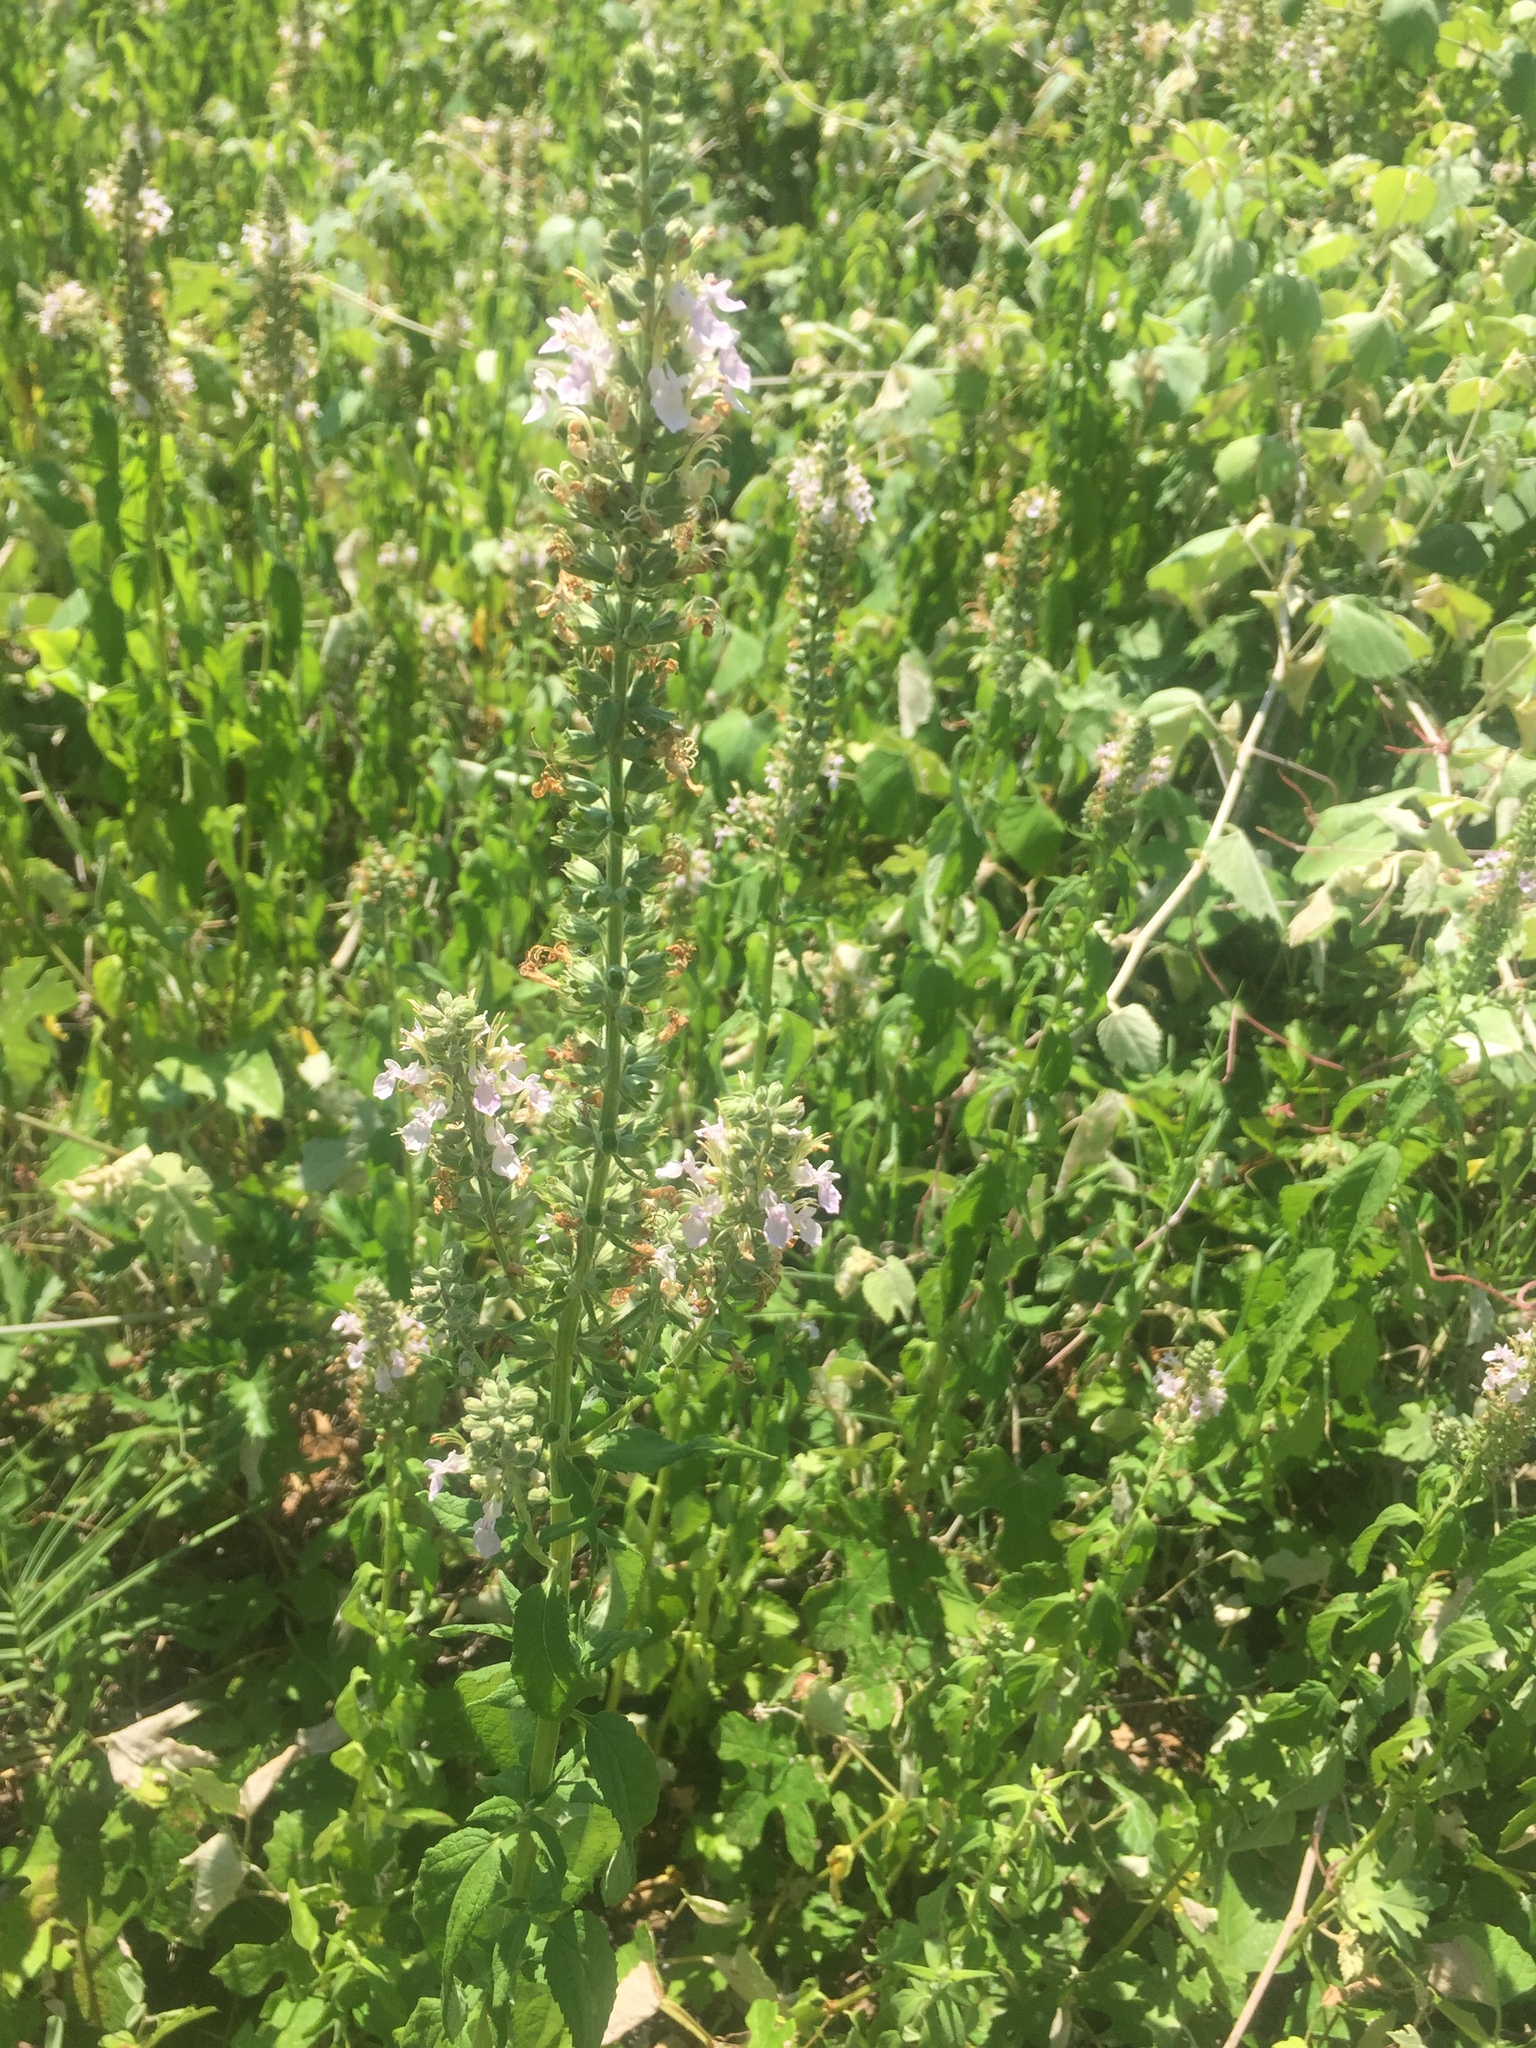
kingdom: Plantae
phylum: Tracheophyta
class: Magnoliopsida
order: Lamiales
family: Lamiaceae
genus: Teucrium
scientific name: Teucrium canadense
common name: American germander
